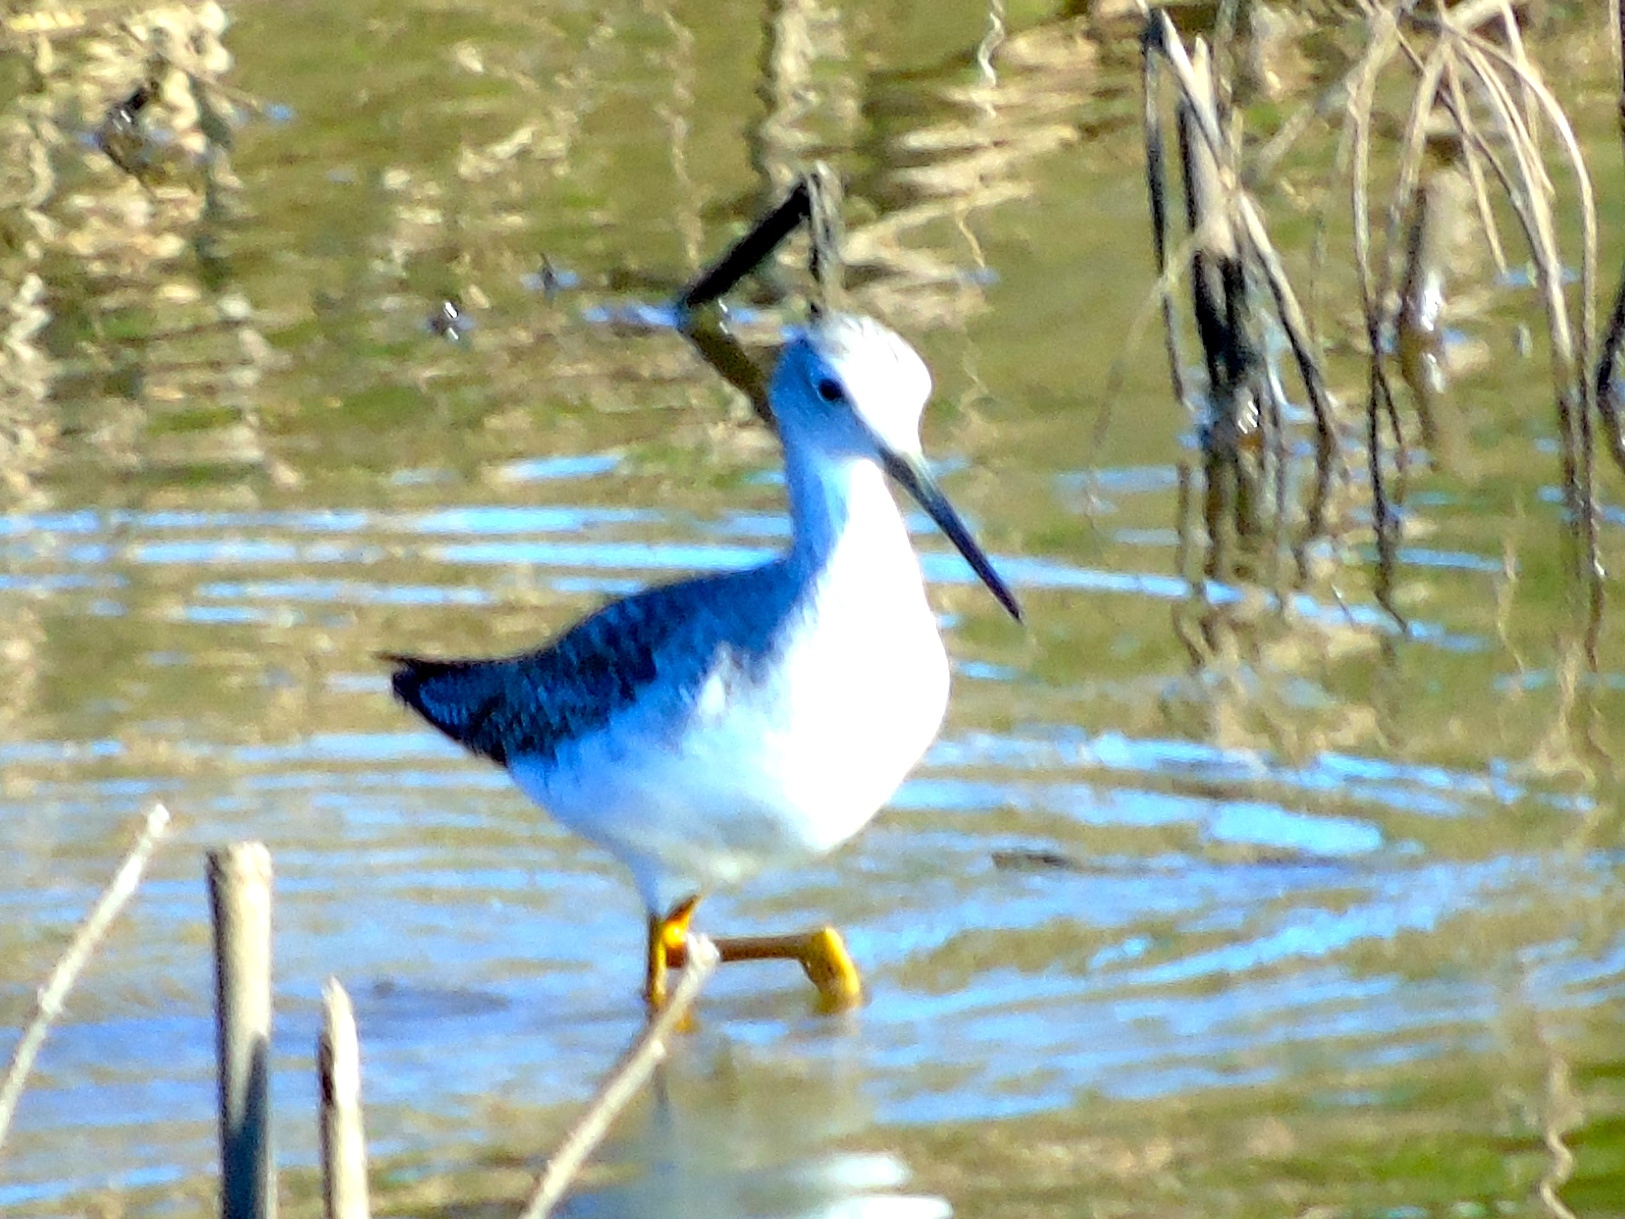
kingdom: Animalia
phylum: Chordata
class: Aves
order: Charadriiformes
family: Scolopacidae
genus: Tringa
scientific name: Tringa melanoleuca
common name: Greater yellowlegs
